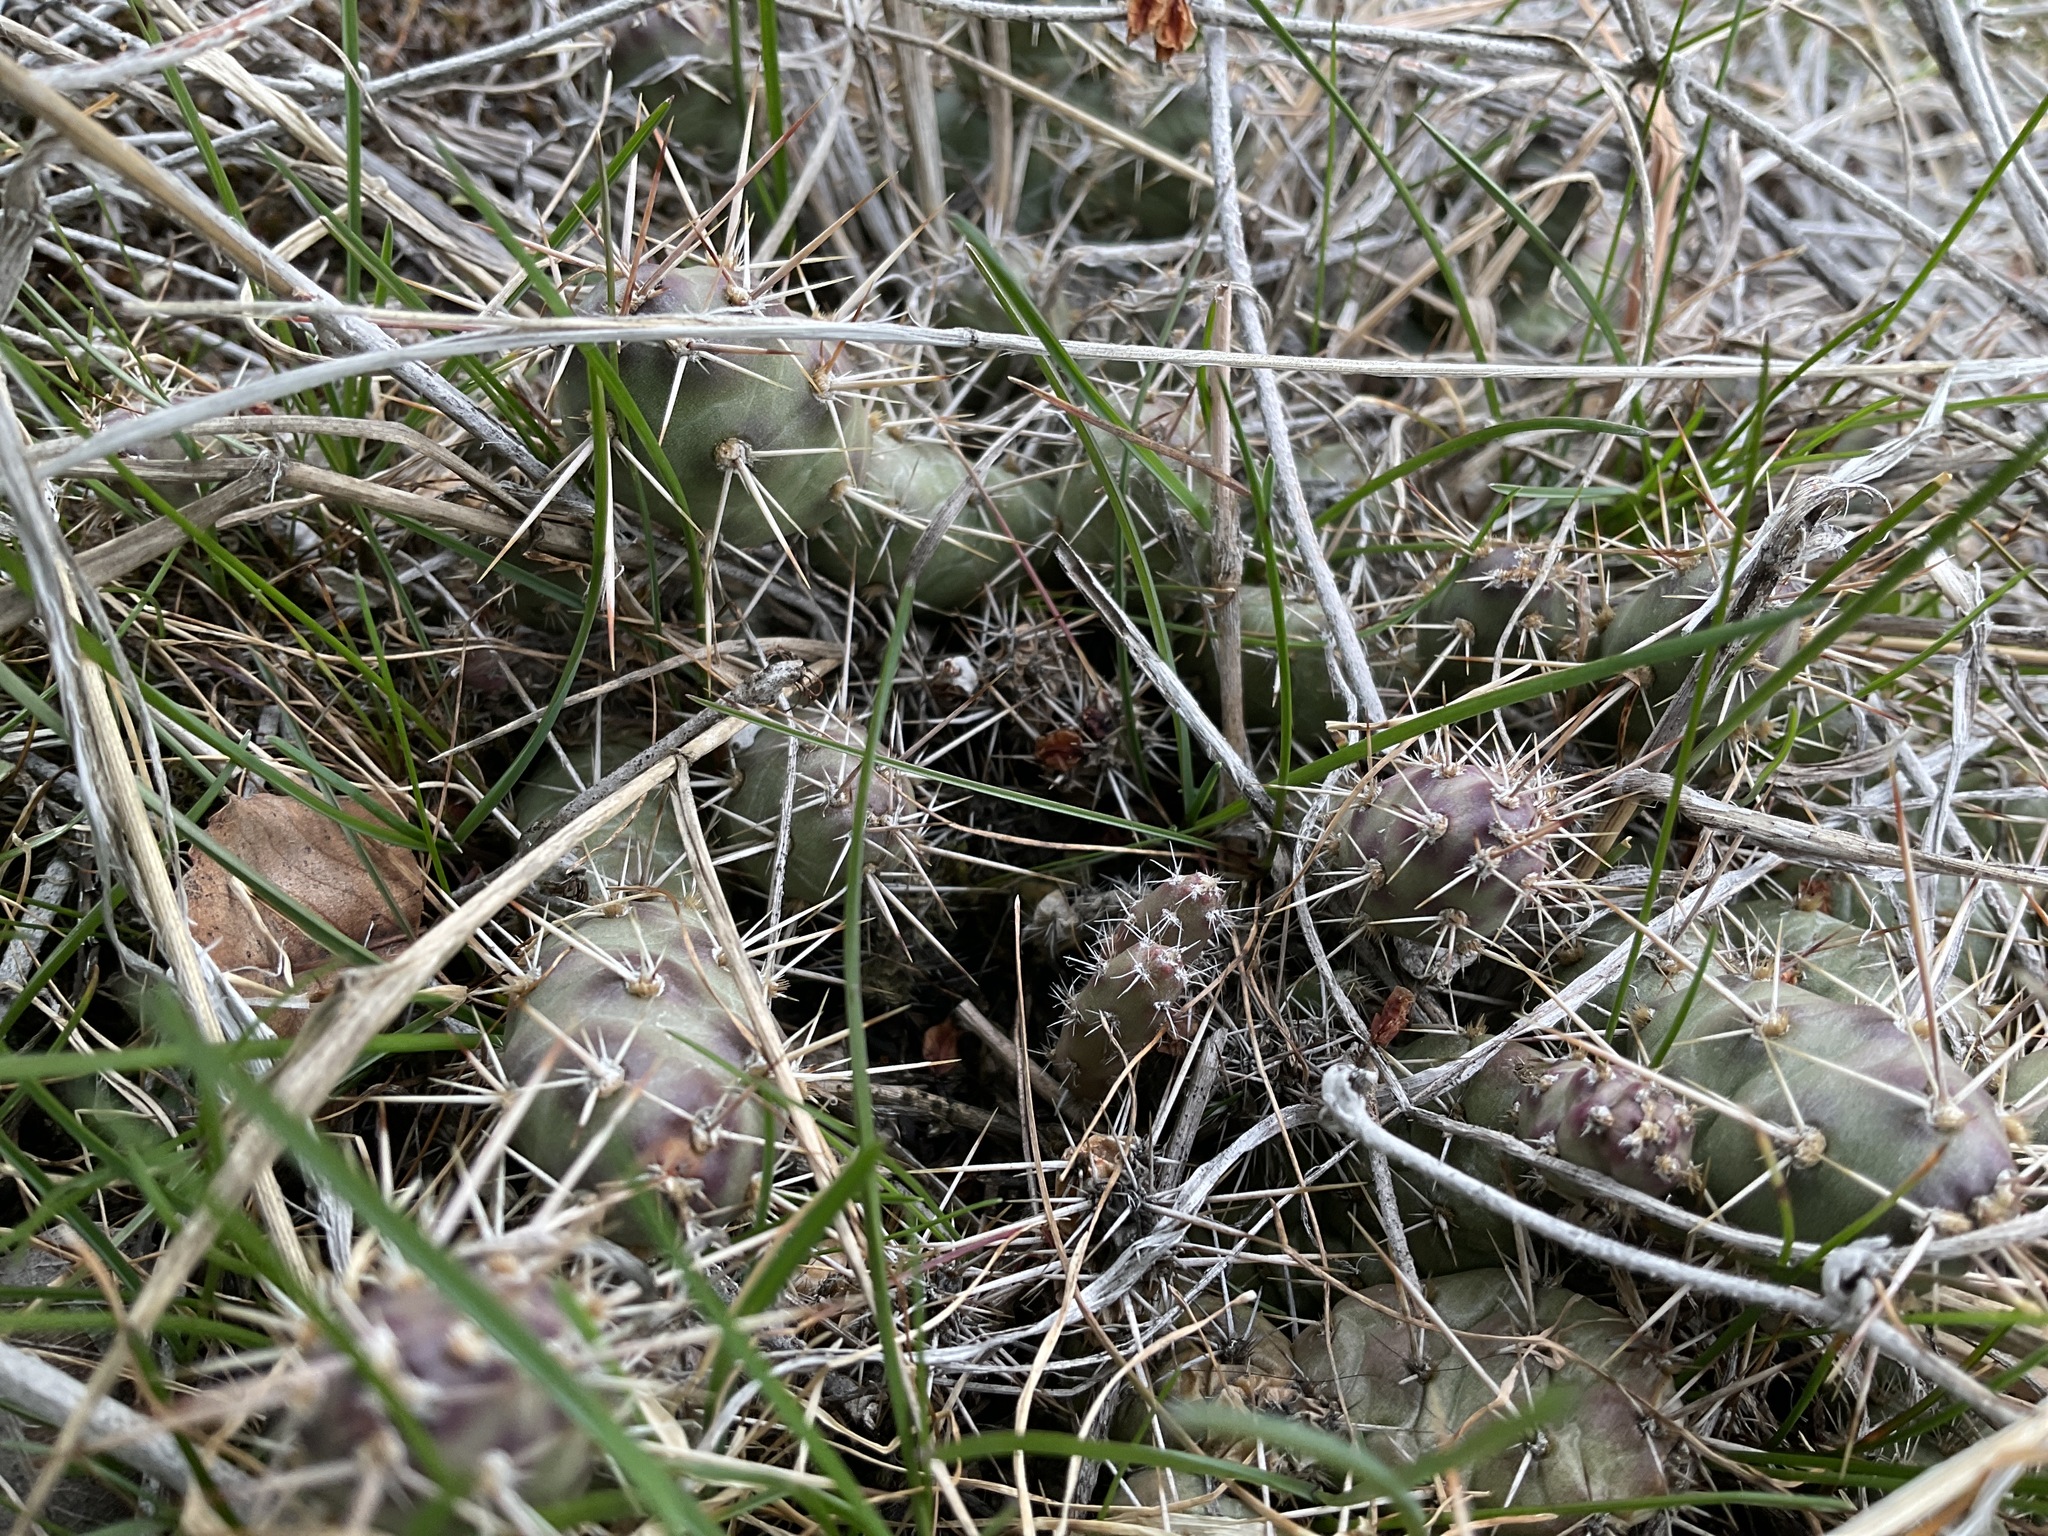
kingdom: Plantae
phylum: Tracheophyta
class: Magnoliopsida
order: Caryophyllales
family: Cactaceae
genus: Opuntia
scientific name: Opuntia fragilis
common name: Brittle cactus
